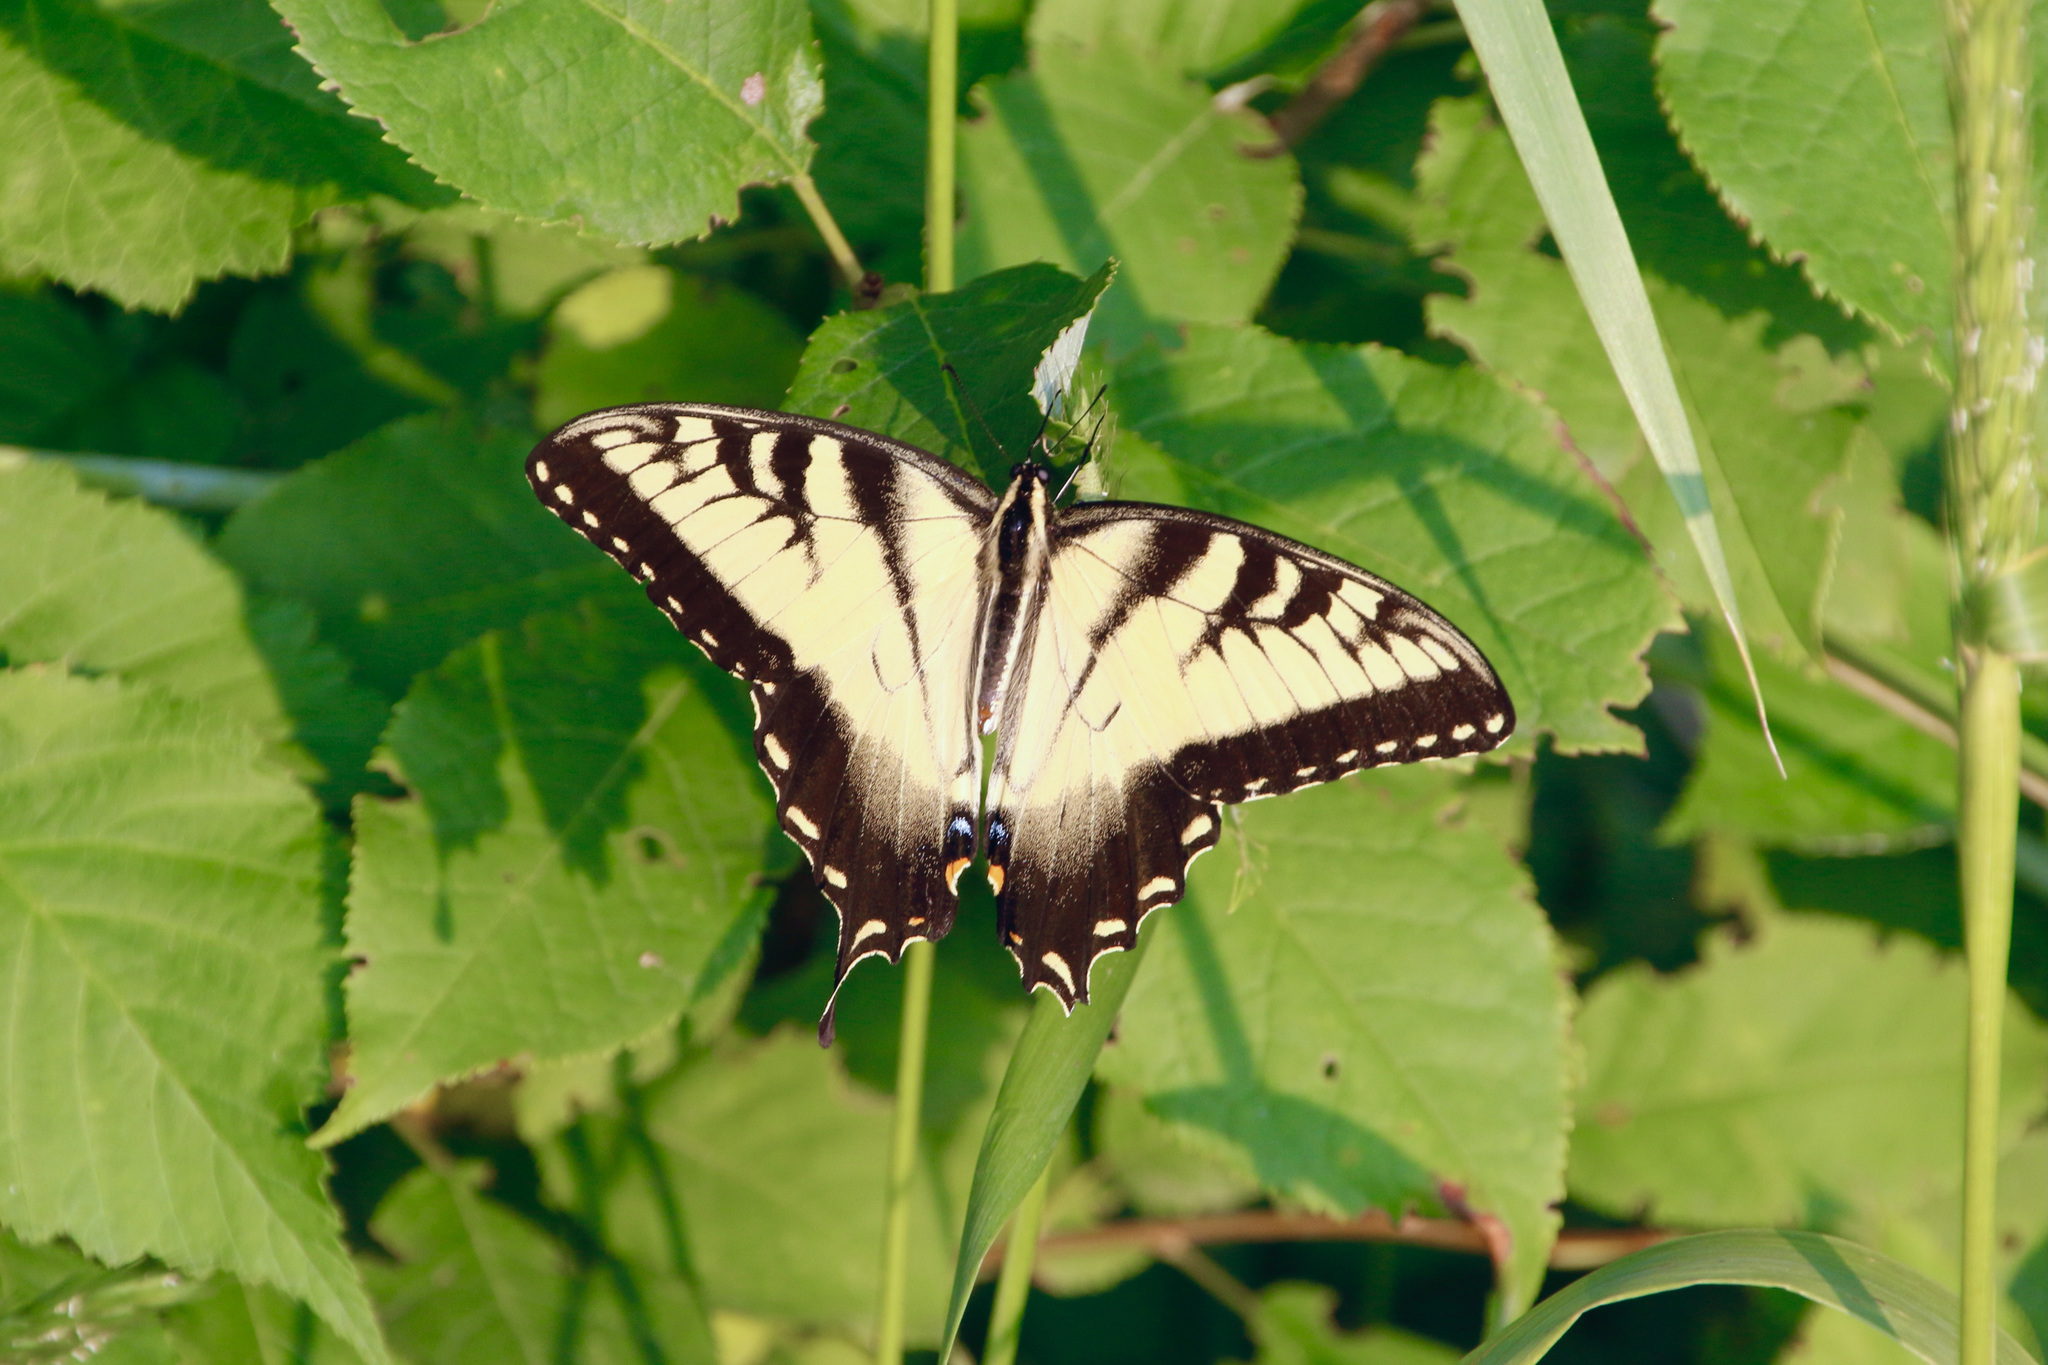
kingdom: Animalia
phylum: Arthropoda
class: Insecta
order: Lepidoptera
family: Papilionidae
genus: Papilio
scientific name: Papilio glaucus
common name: Tiger swallowtail
